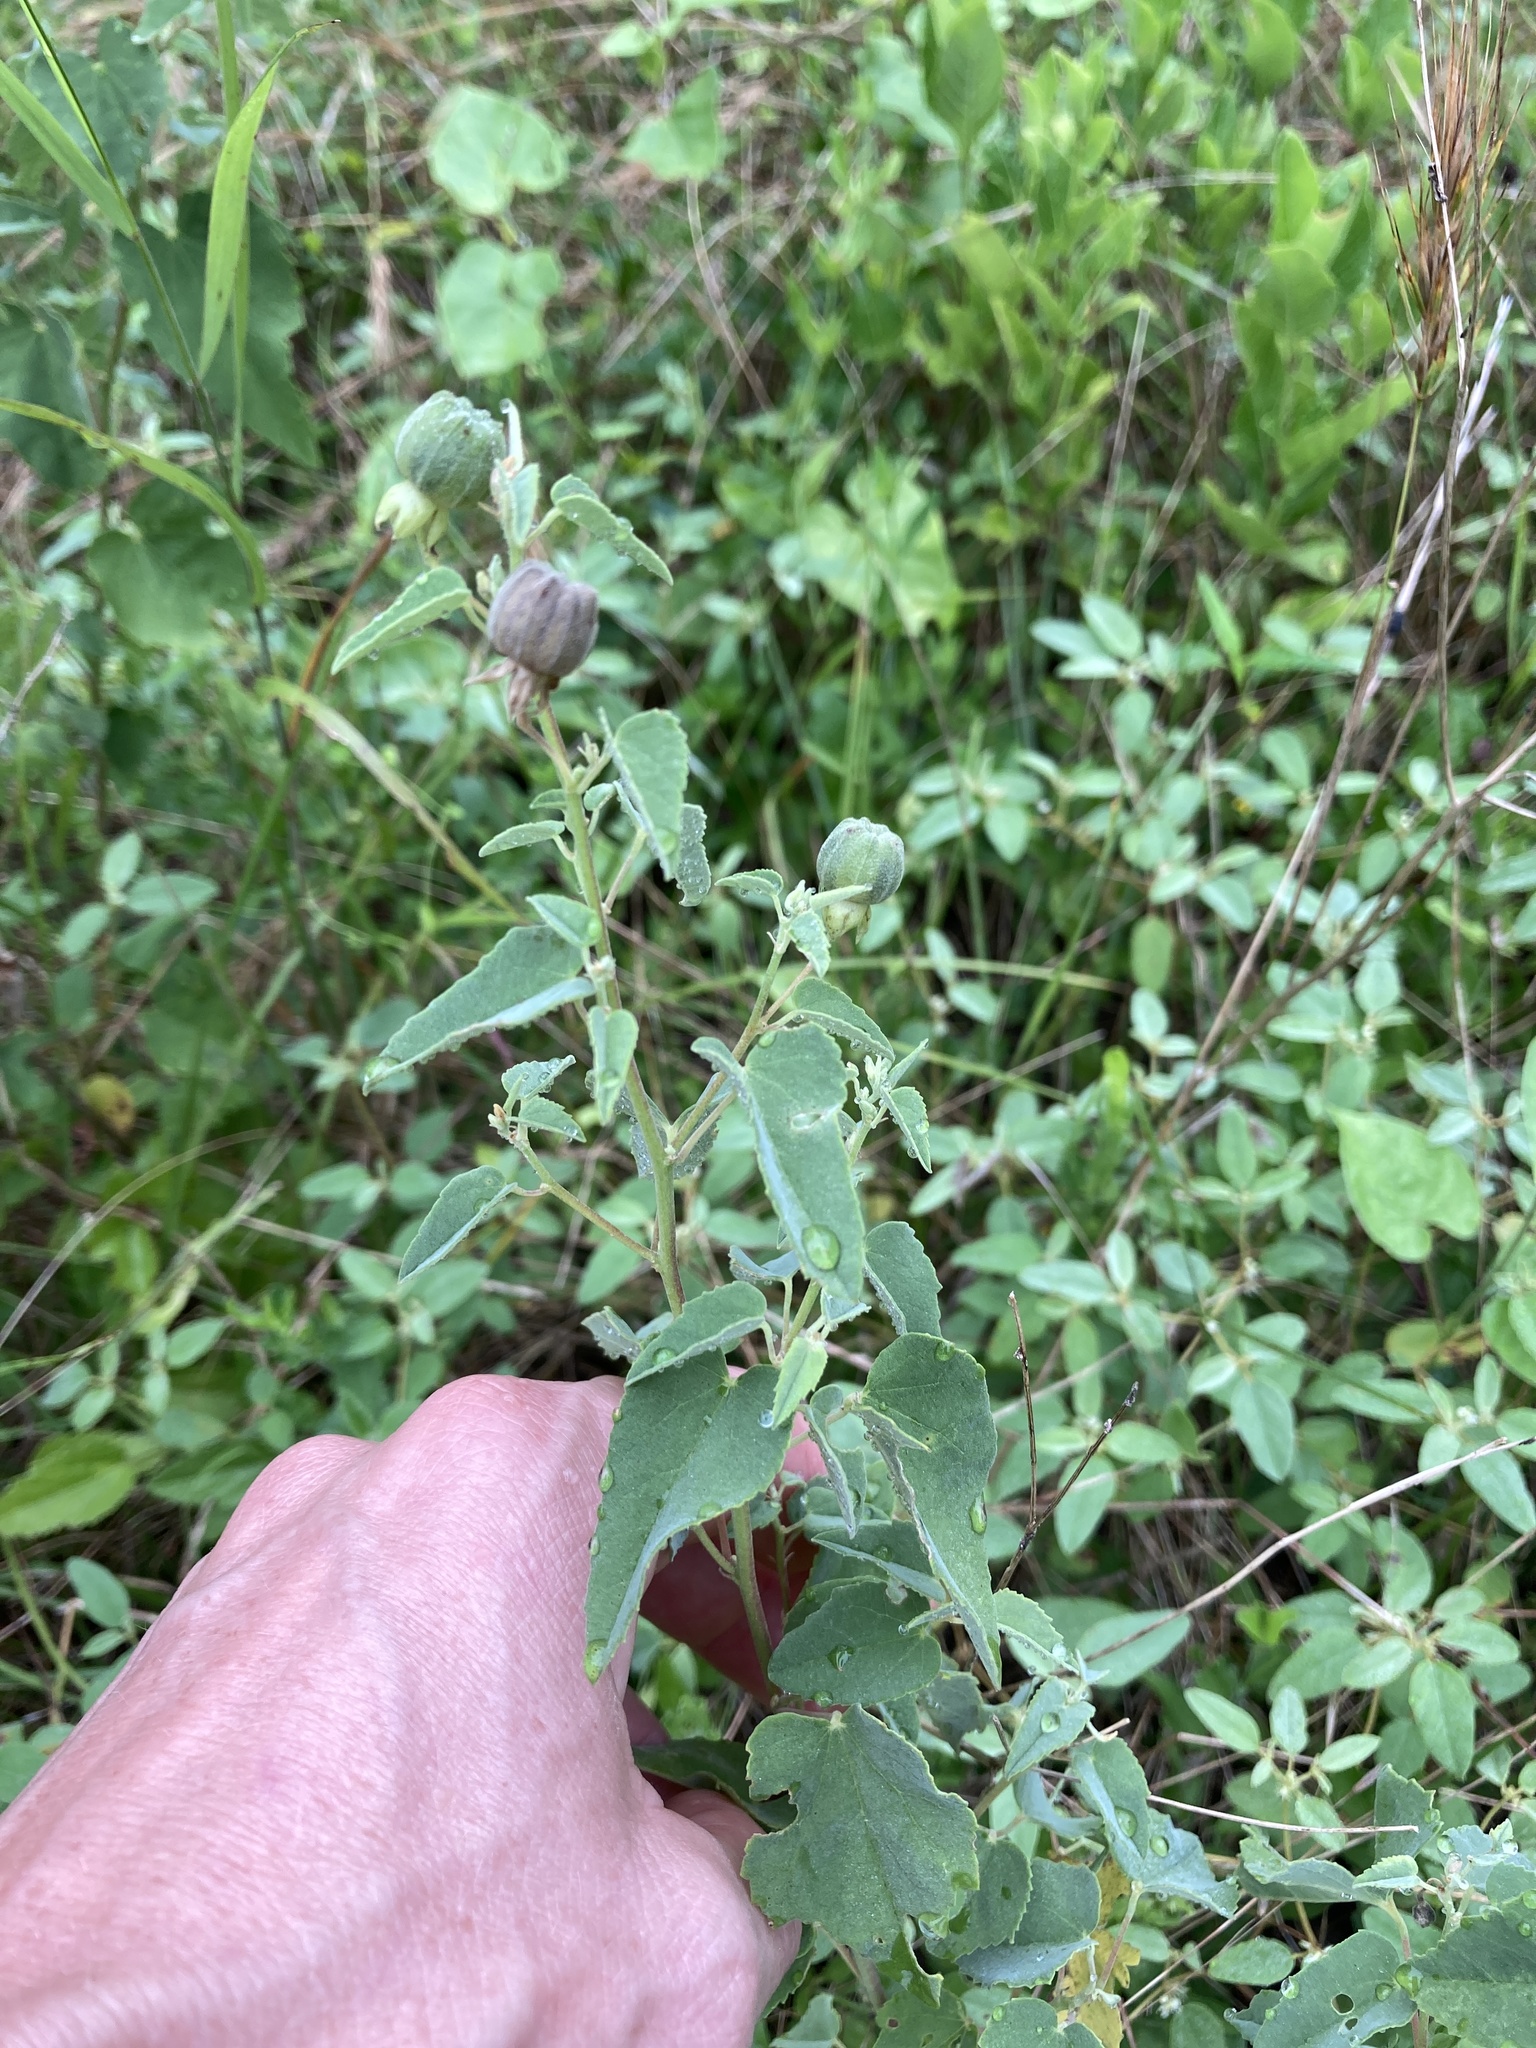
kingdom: Plantae
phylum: Tracheophyta
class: Magnoliopsida
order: Malvales
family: Malvaceae
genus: Abutilon
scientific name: Abutilon fruticosum
